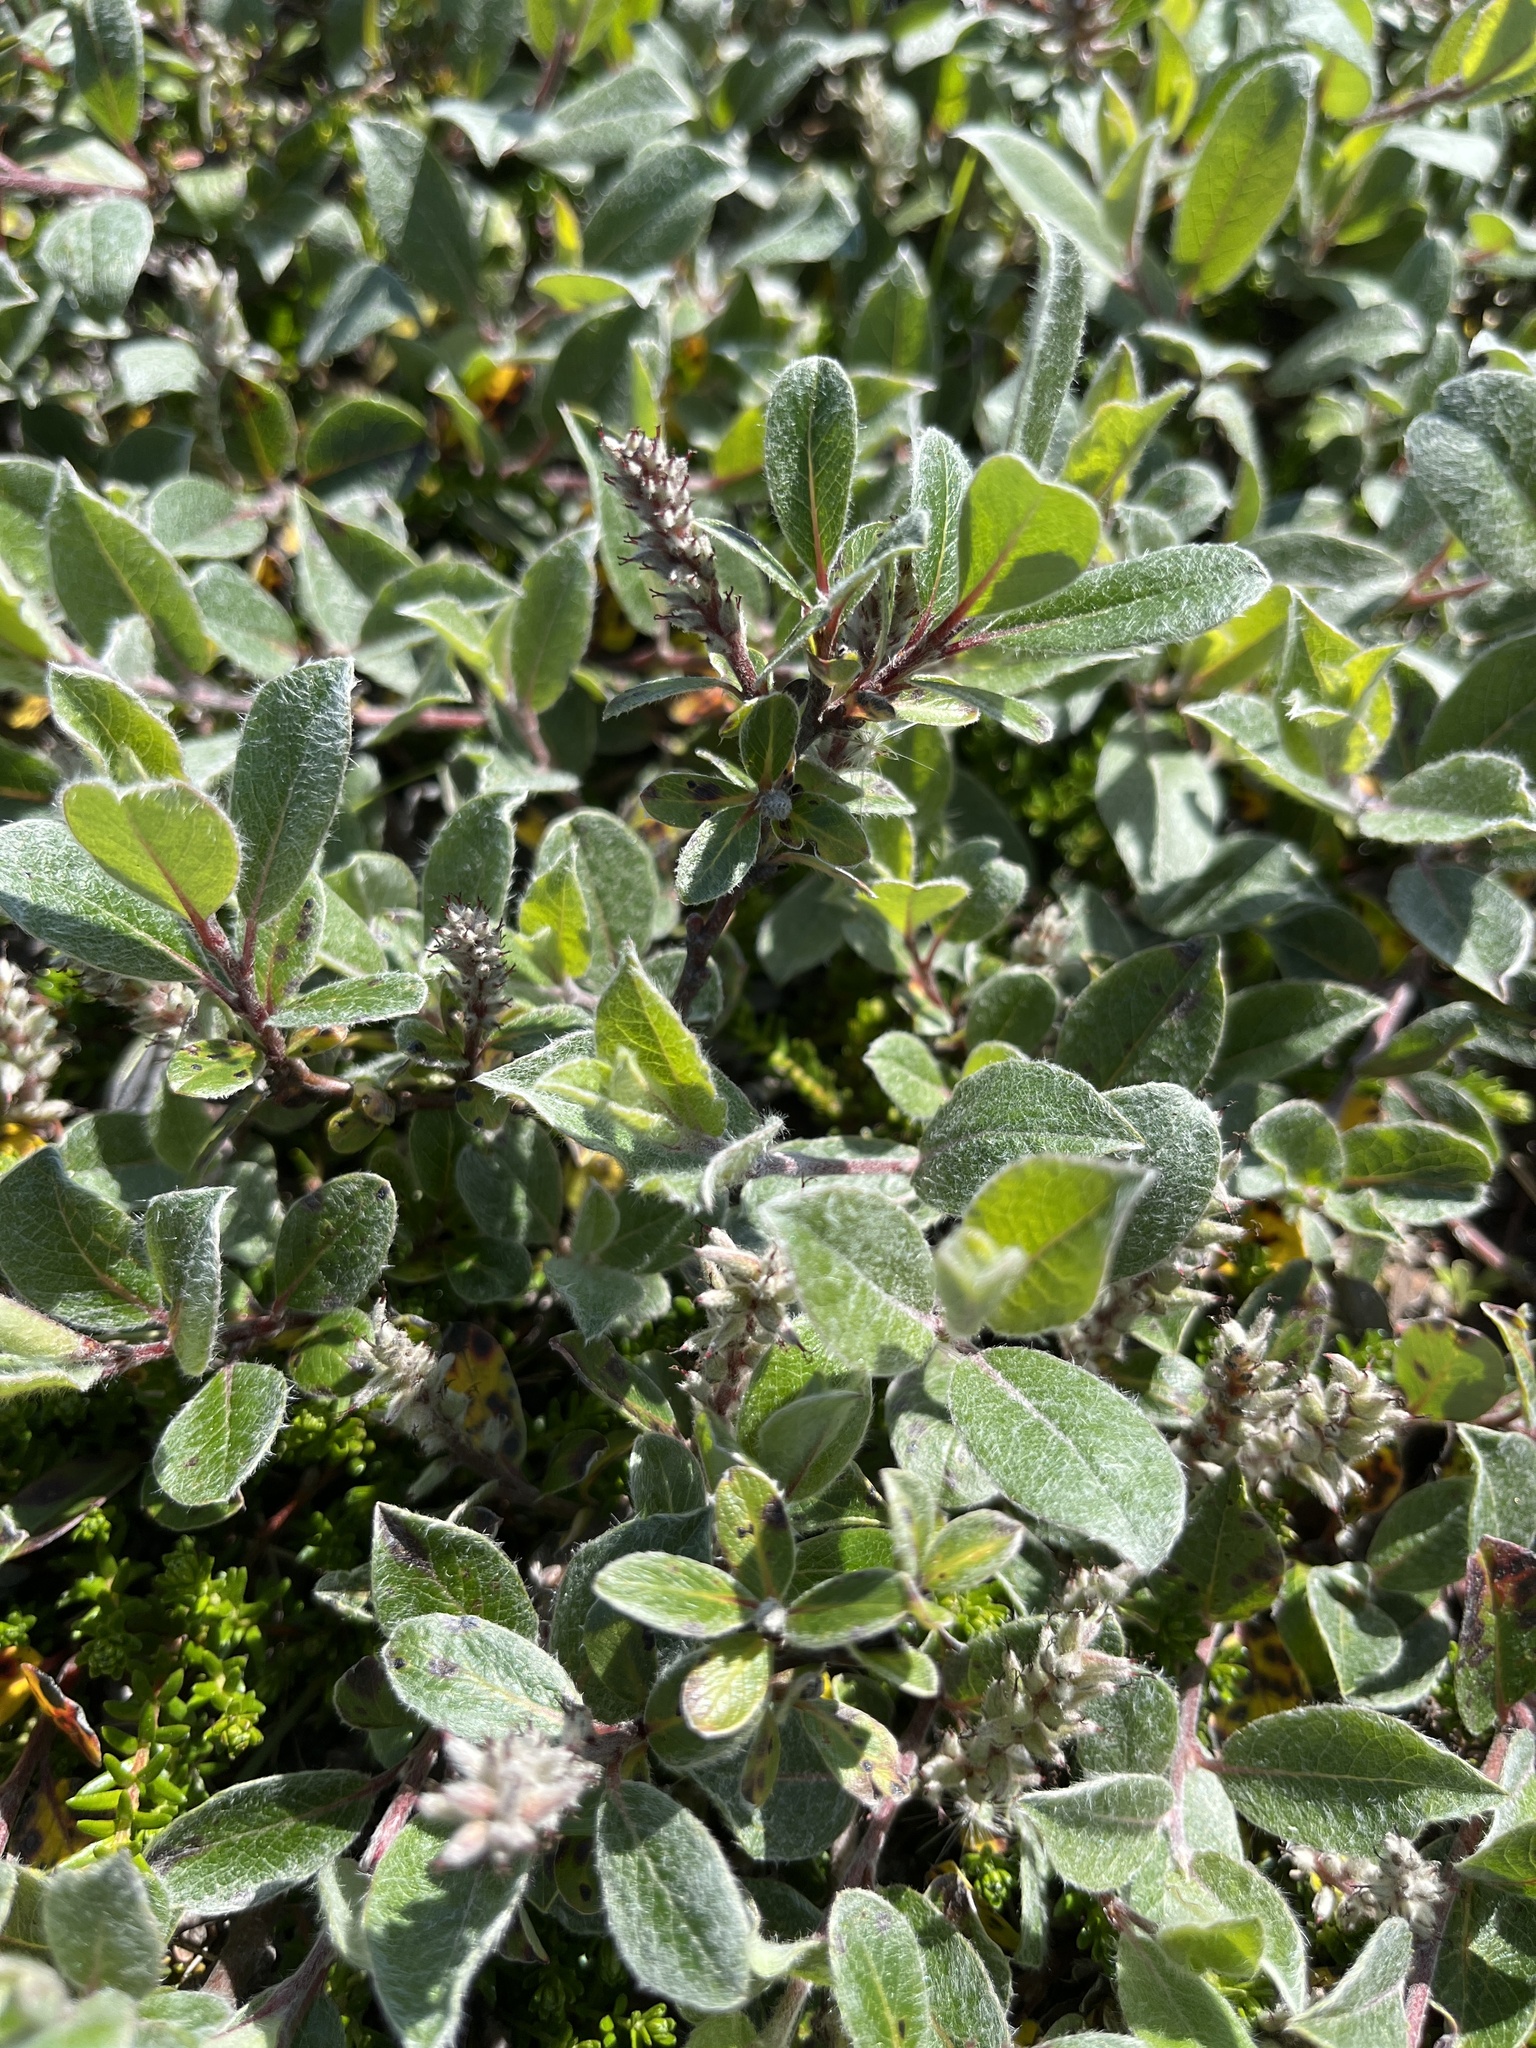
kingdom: Plantae
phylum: Tracheophyta
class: Magnoliopsida
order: Malpighiales
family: Salicaceae
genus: Salix
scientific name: Salix glauca
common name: Glaucous willow
